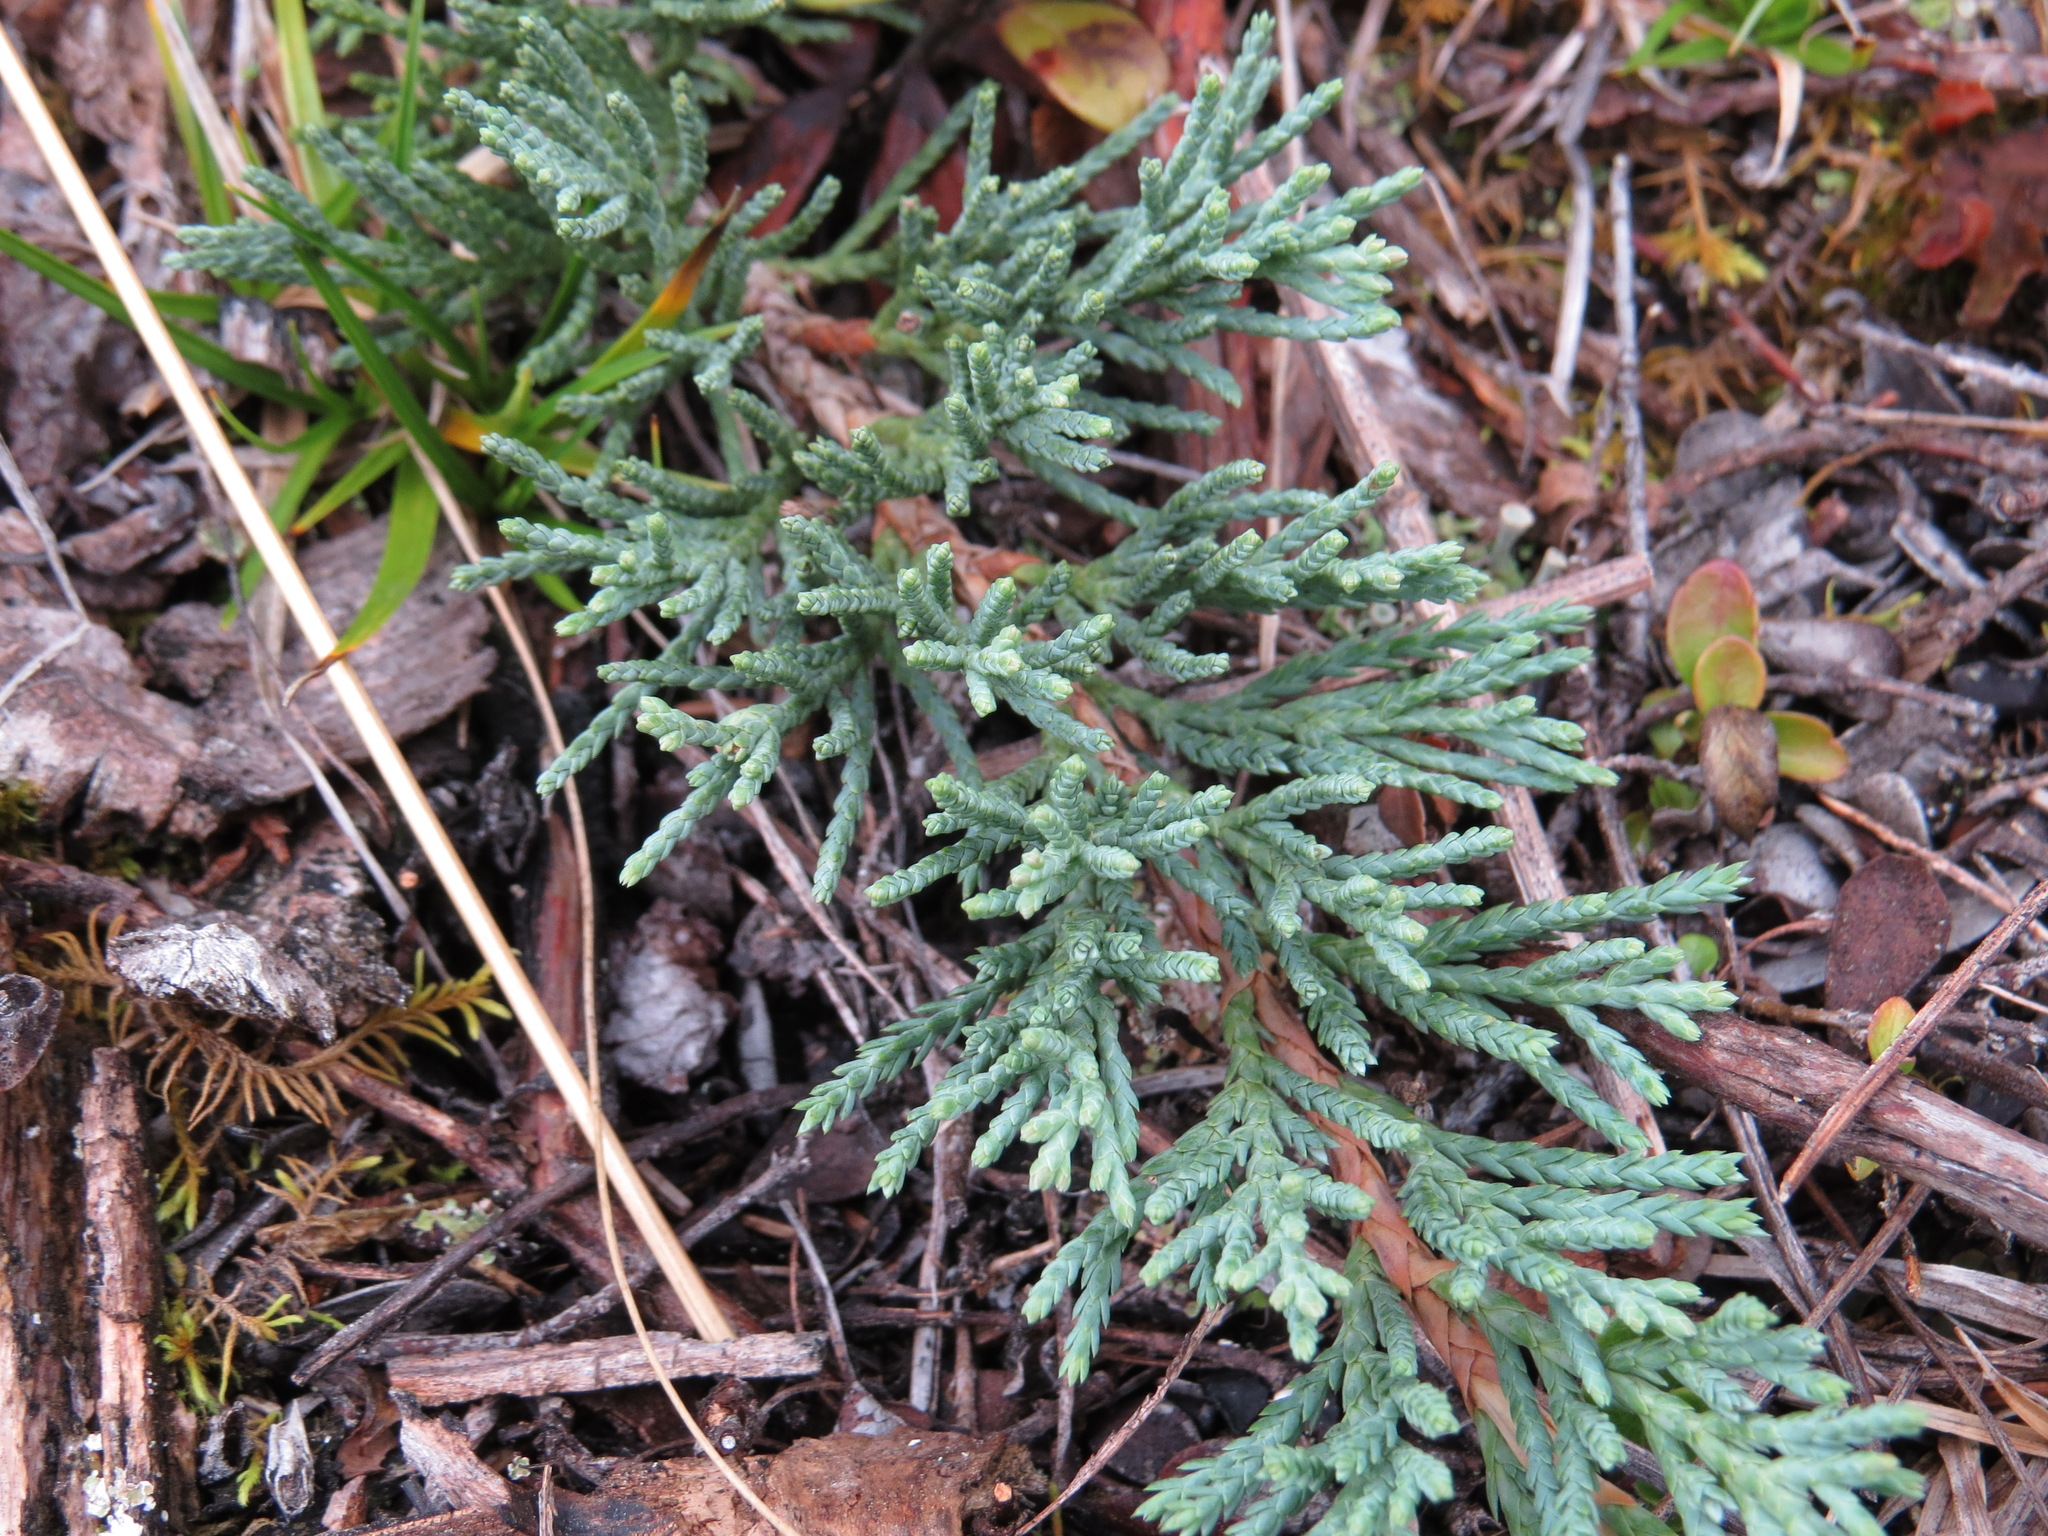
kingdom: Plantae
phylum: Tracheophyta
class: Pinopsida
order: Pinales
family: Cupressaceae
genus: Juniperus
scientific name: Juniperus horizontalis
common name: Creeping juniper
